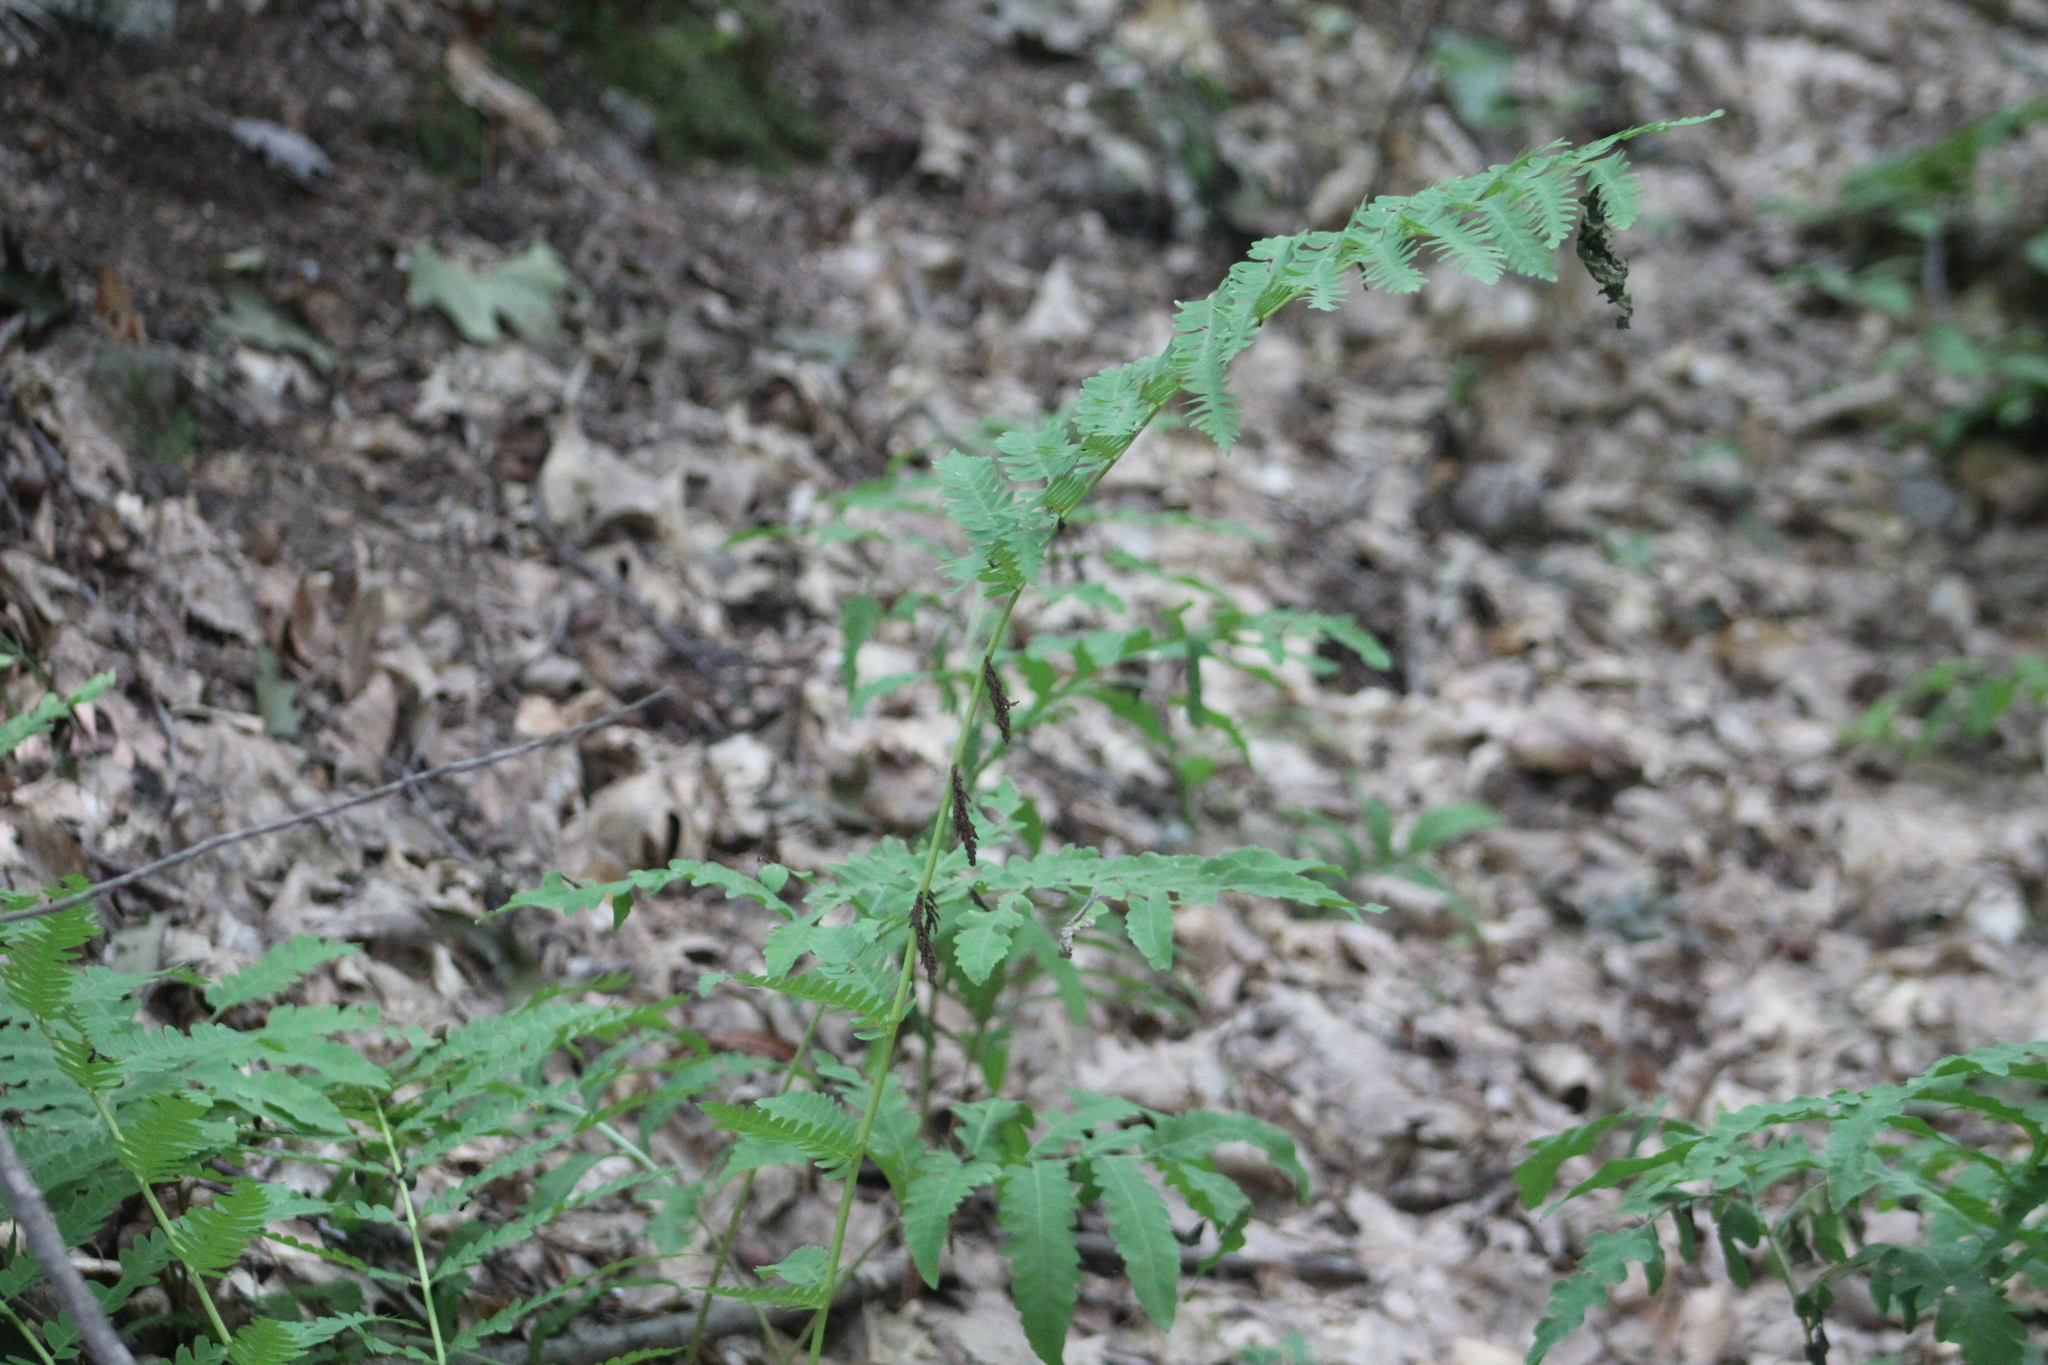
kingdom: Plantae
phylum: Tracheophyta
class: Polypodiopsida
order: Osmundales
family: Osmundaceae
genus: Claytosmunda
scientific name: Claytosmunda claytoniana
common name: Clayton's fern
